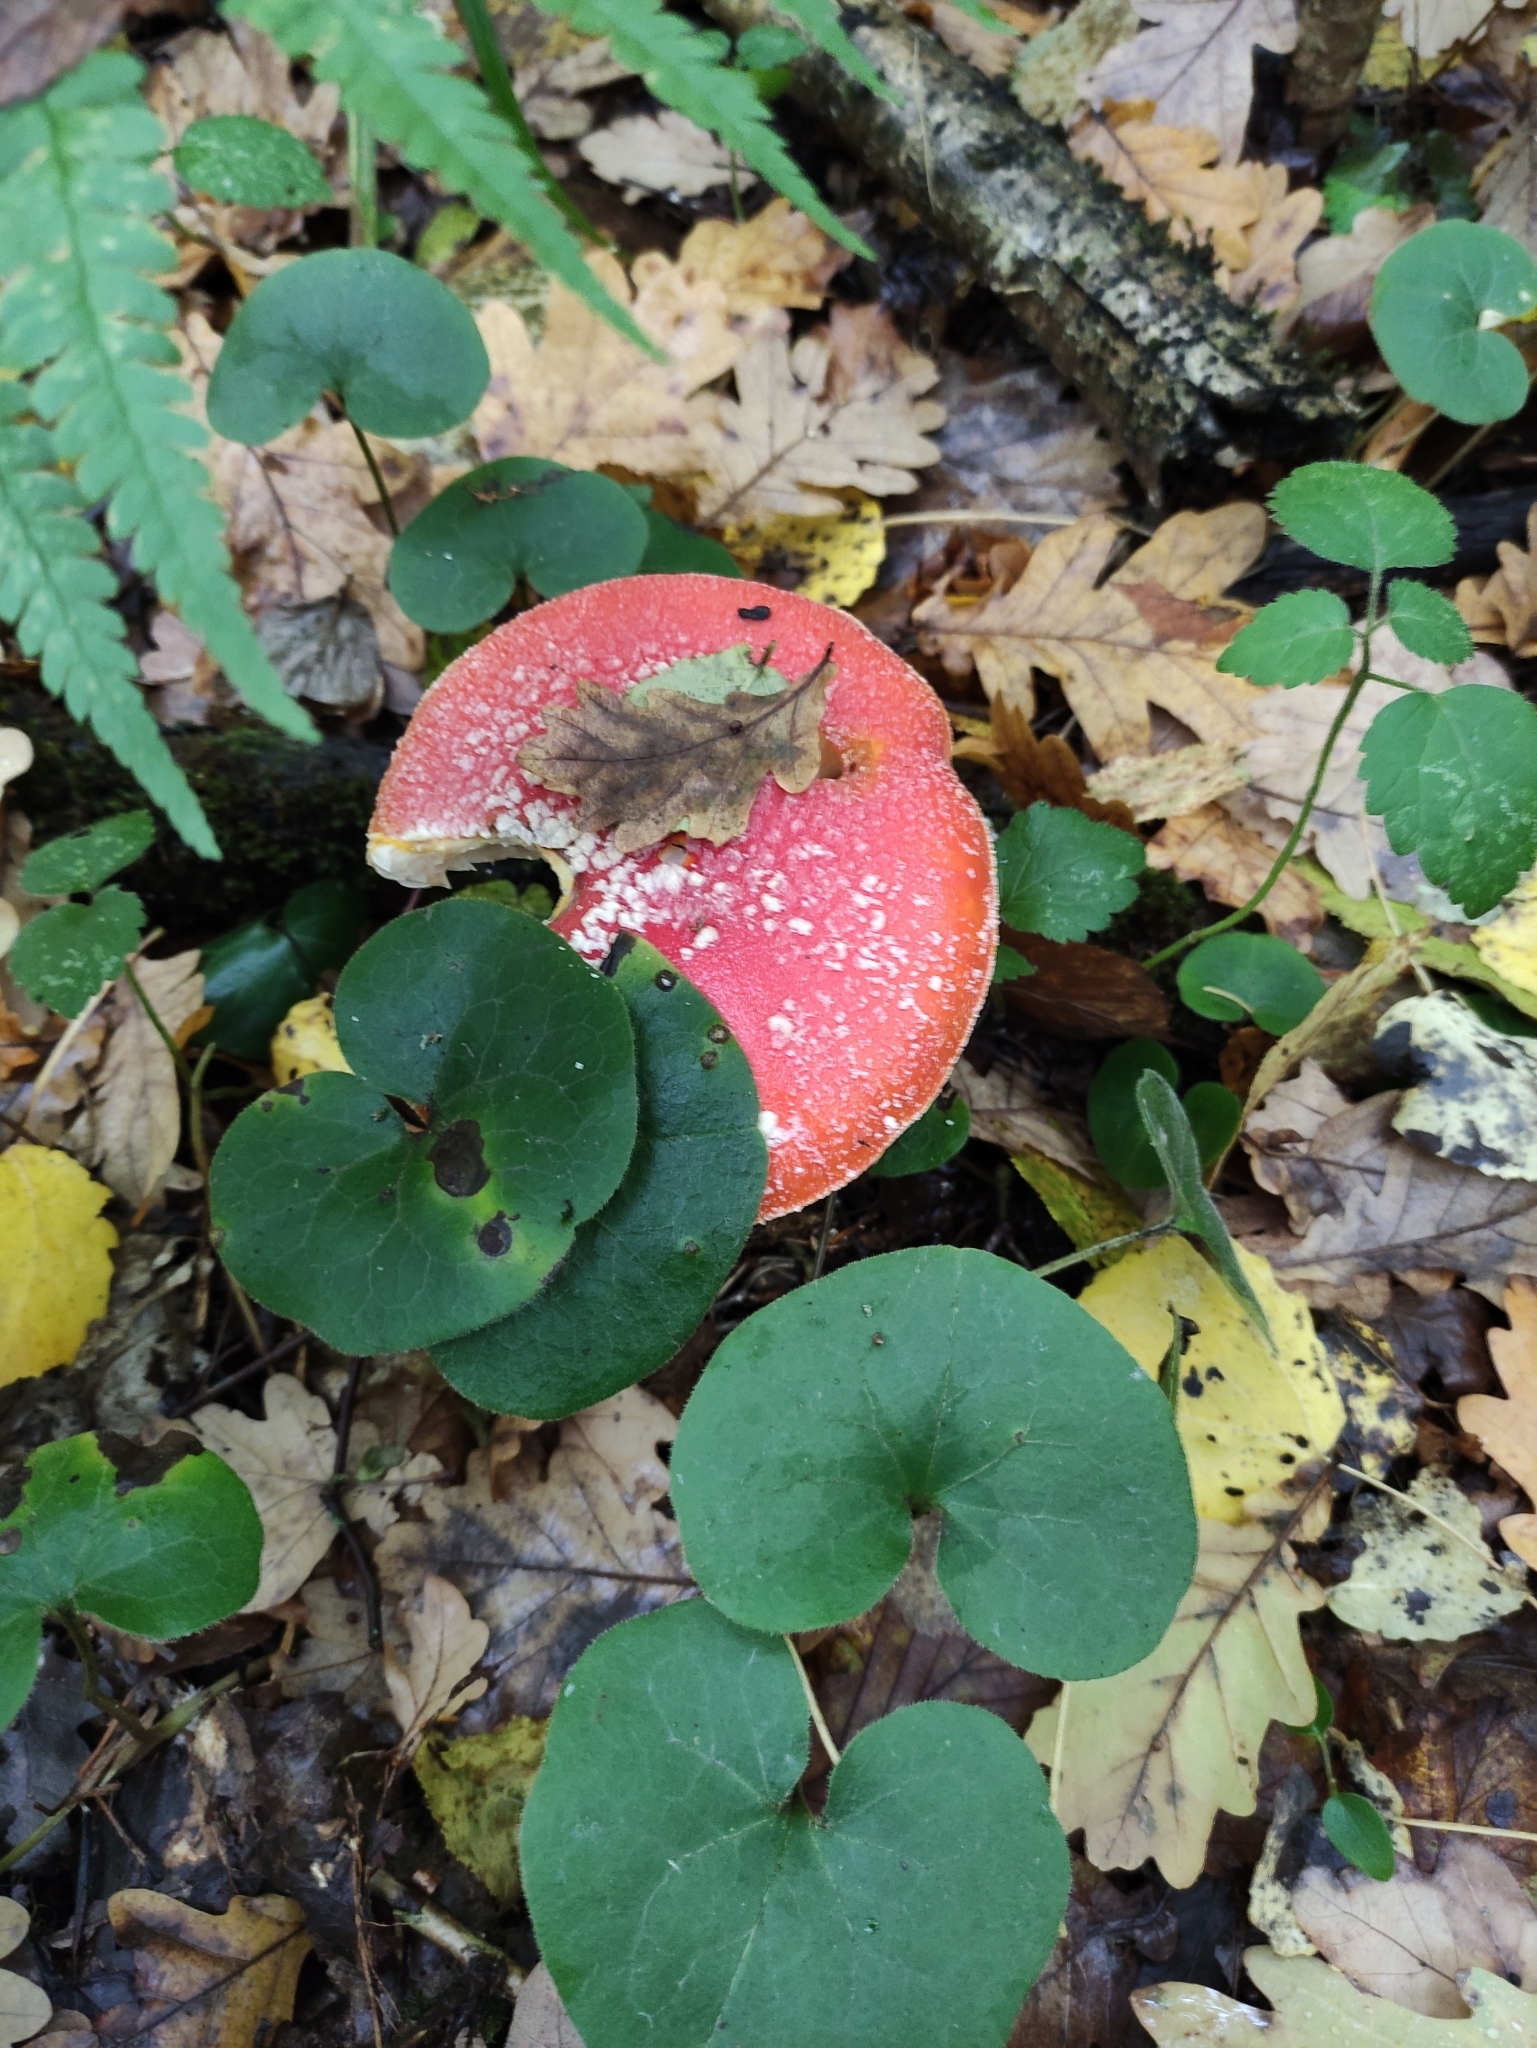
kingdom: Fungi
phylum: Basidiomycota
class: Agaricomycetes
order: Agaricales
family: Amanitaceae
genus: Amanita
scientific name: Amanita muscaria
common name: Fly agaric
